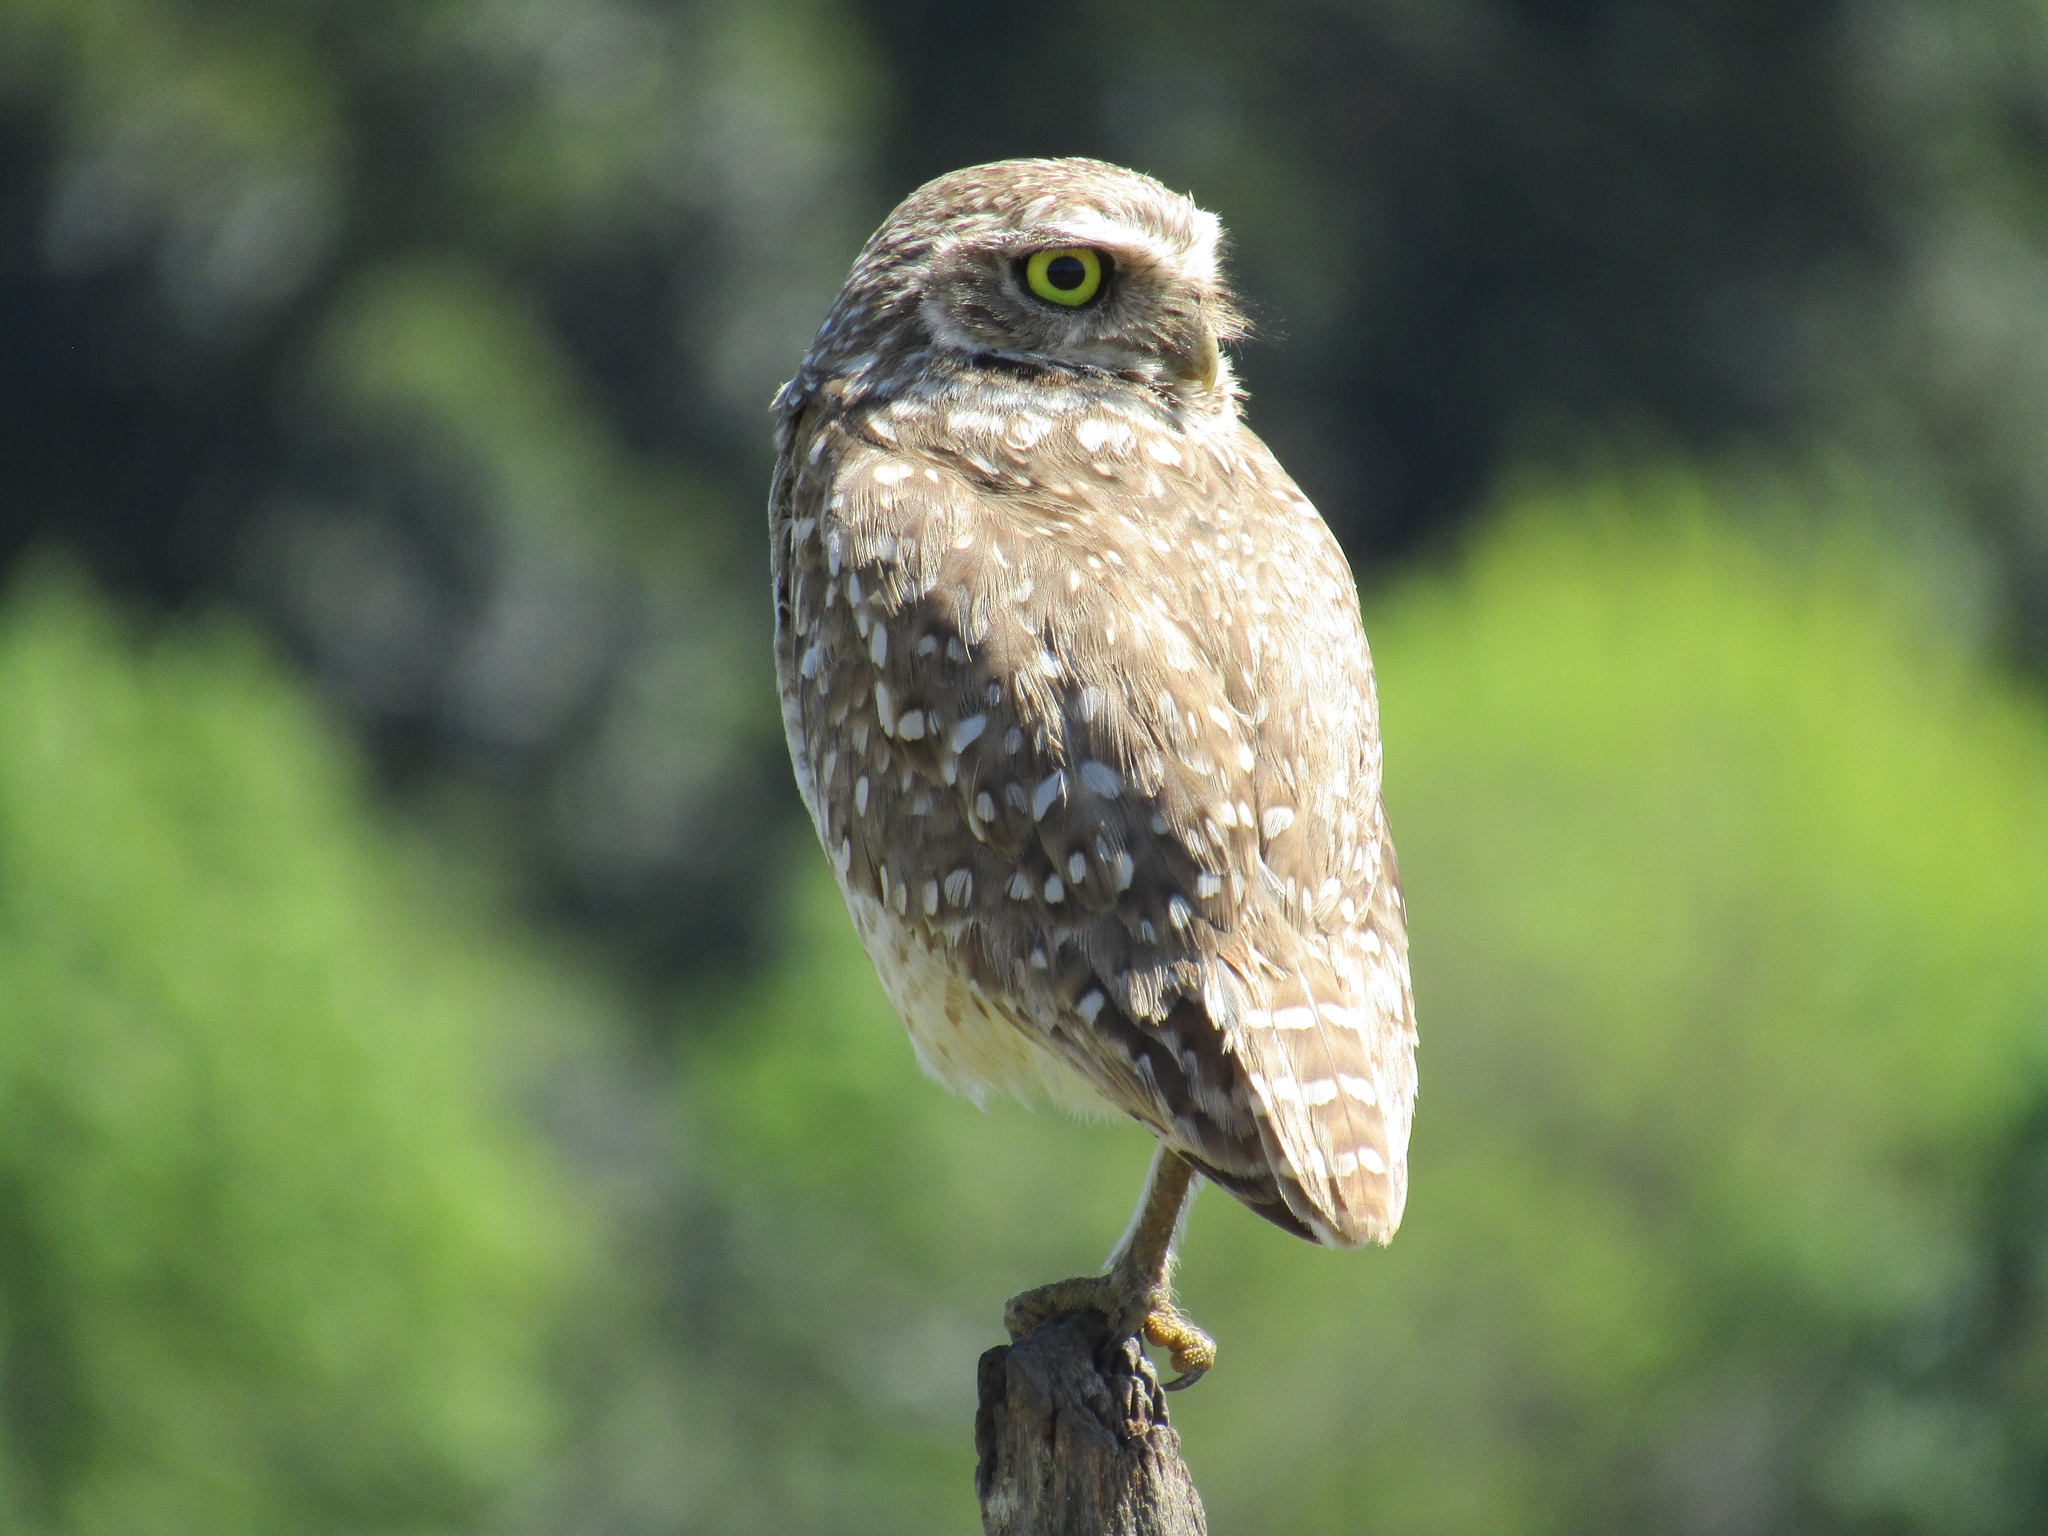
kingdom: Animalia
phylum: Chordata
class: Aves
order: Strigiformes
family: Strigidae
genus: Athene
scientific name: Athene cunicularia
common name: Burrowing owl
